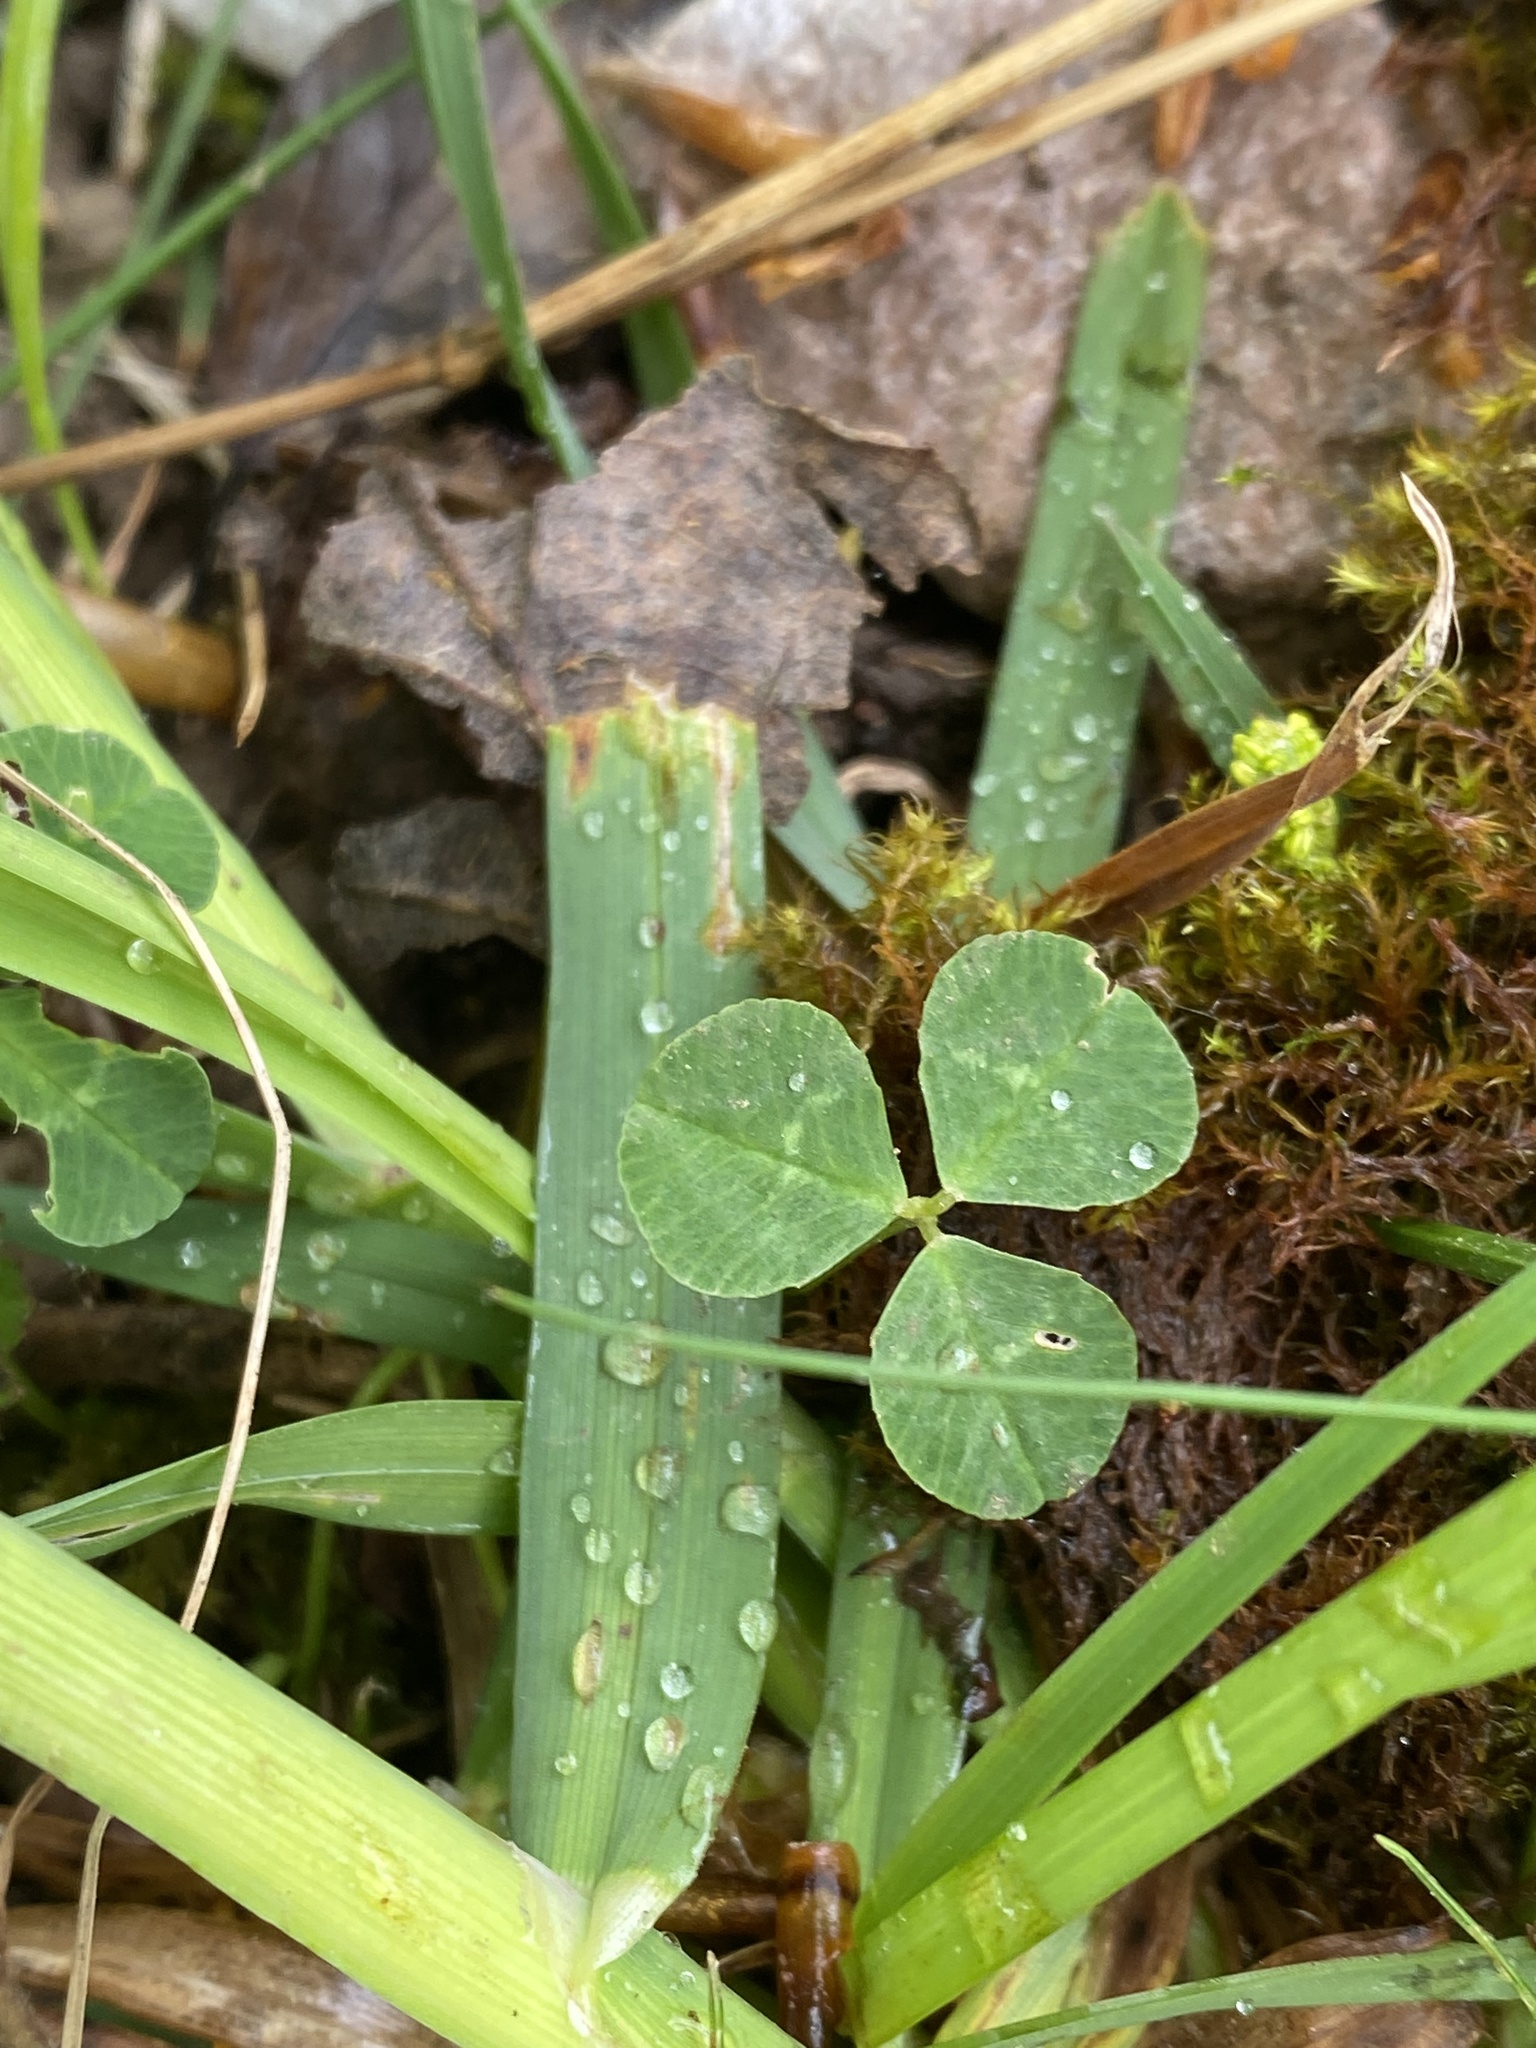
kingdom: Plantae
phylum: Tracheophyta
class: Magnoliopsida
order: Fabales
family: Fabaceae
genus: Trifolium
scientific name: Trifolium repens
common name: White clover
